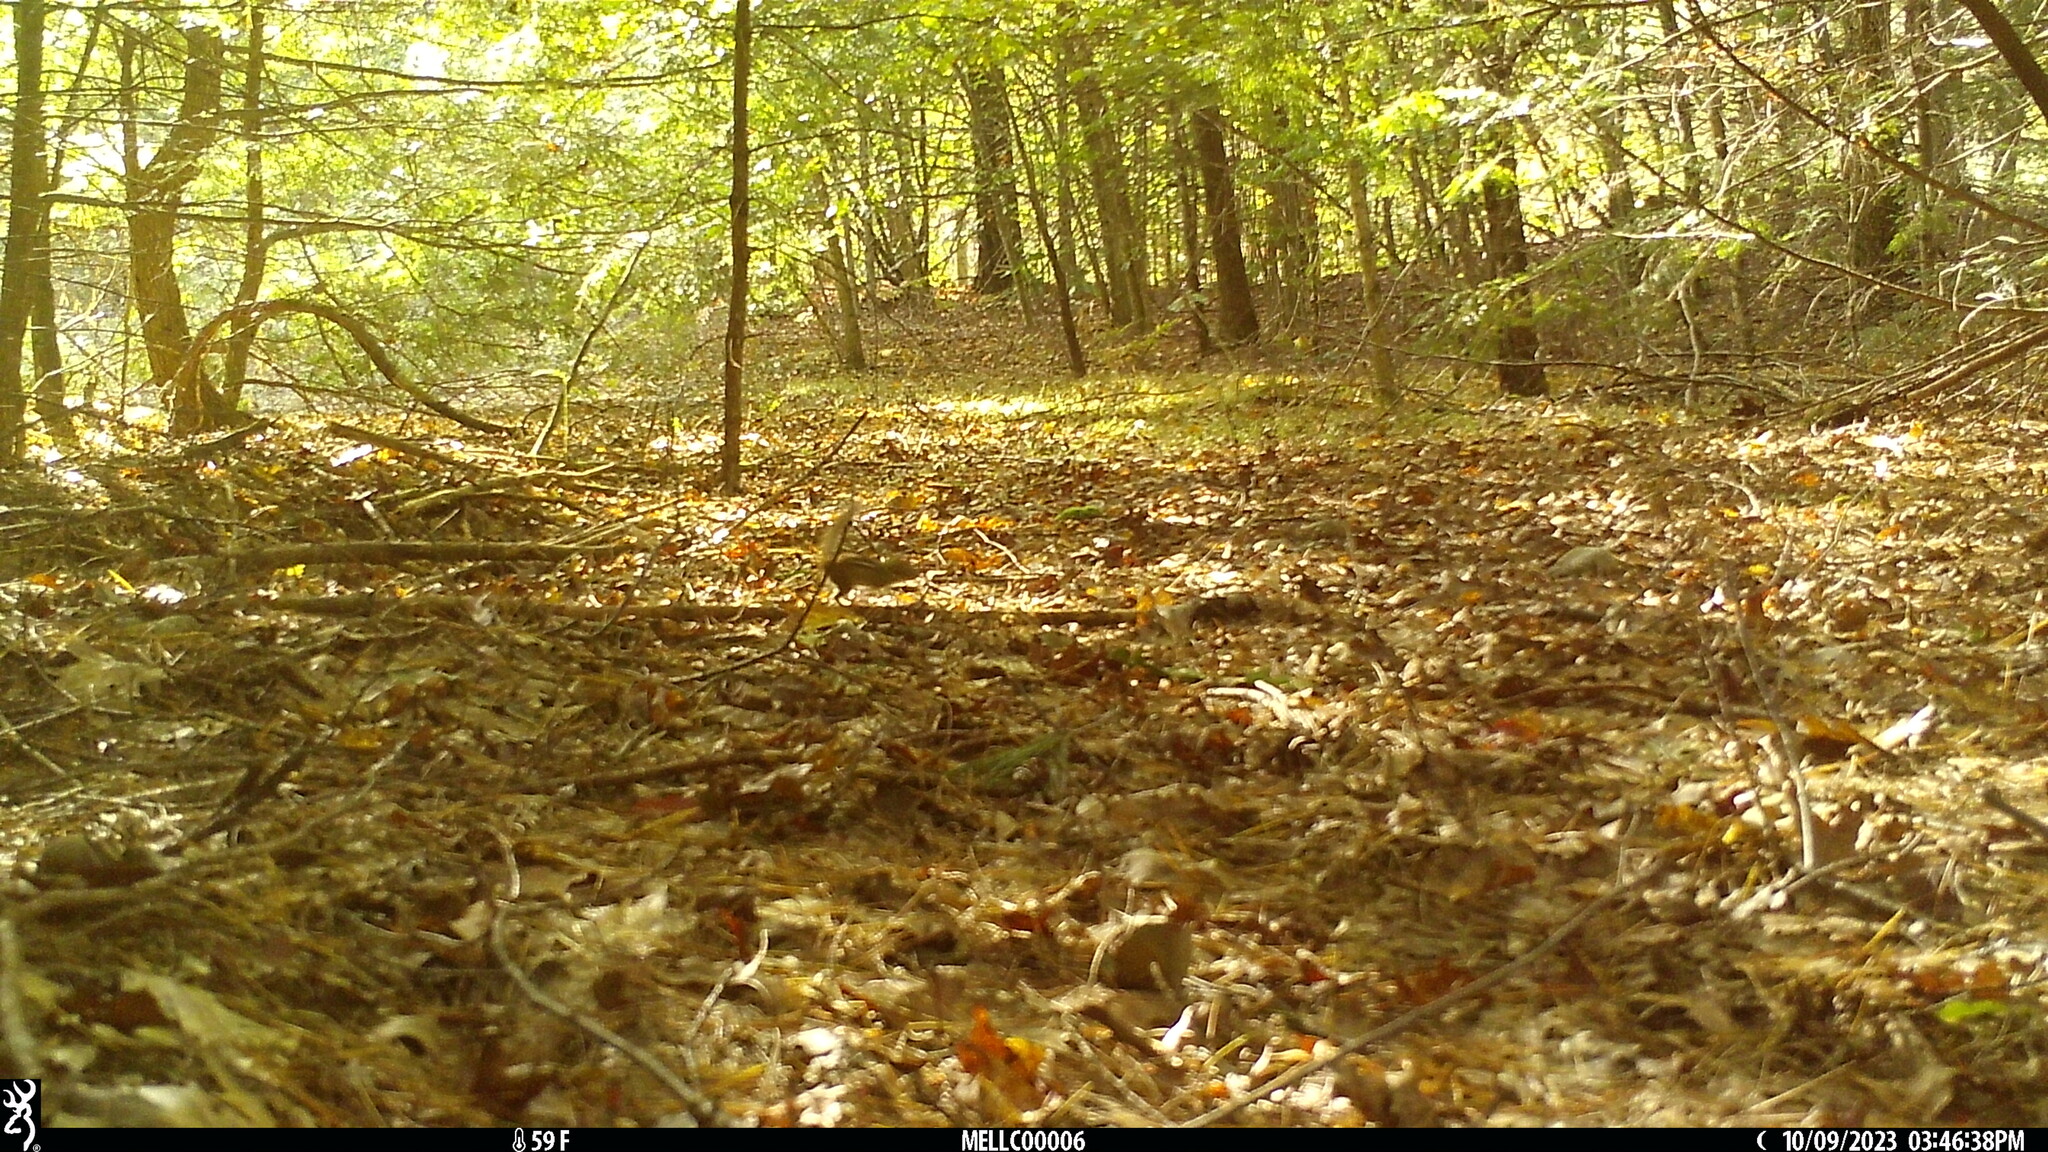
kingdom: Animalia
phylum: Chordata
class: Mammalia
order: Rodentia
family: Sciuridae
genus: Tamias
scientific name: Tamias striatus
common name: Eastern chipmunk
